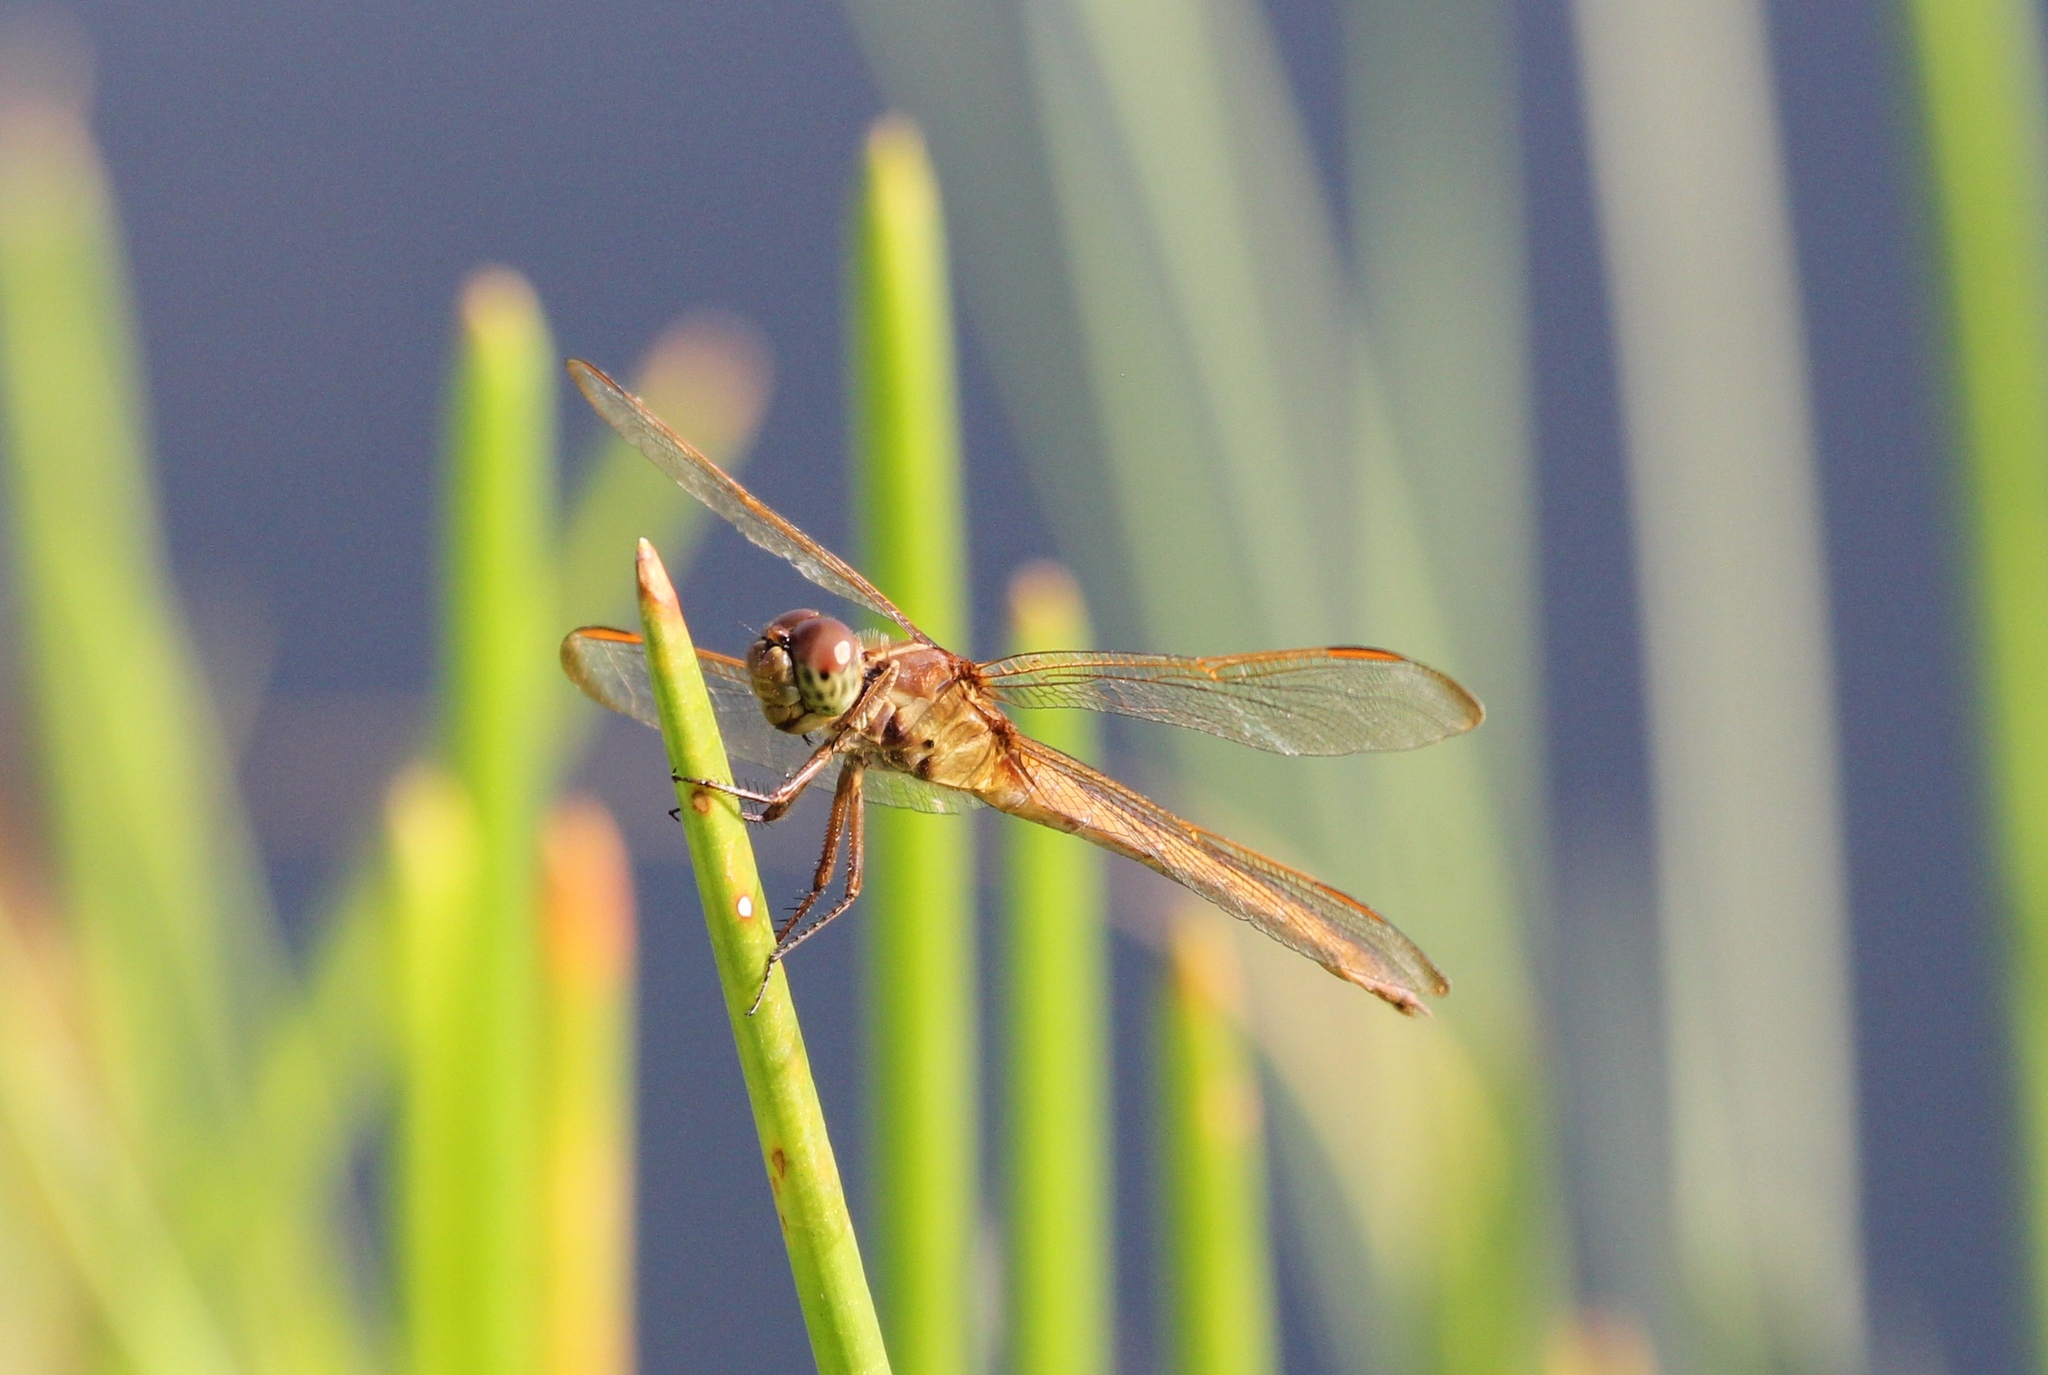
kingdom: Animalia
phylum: Arthropoda
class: Insecta
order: Odonata
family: Libellulidae
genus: Libellula
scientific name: Libellula needhami
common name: Needham's skimmer
